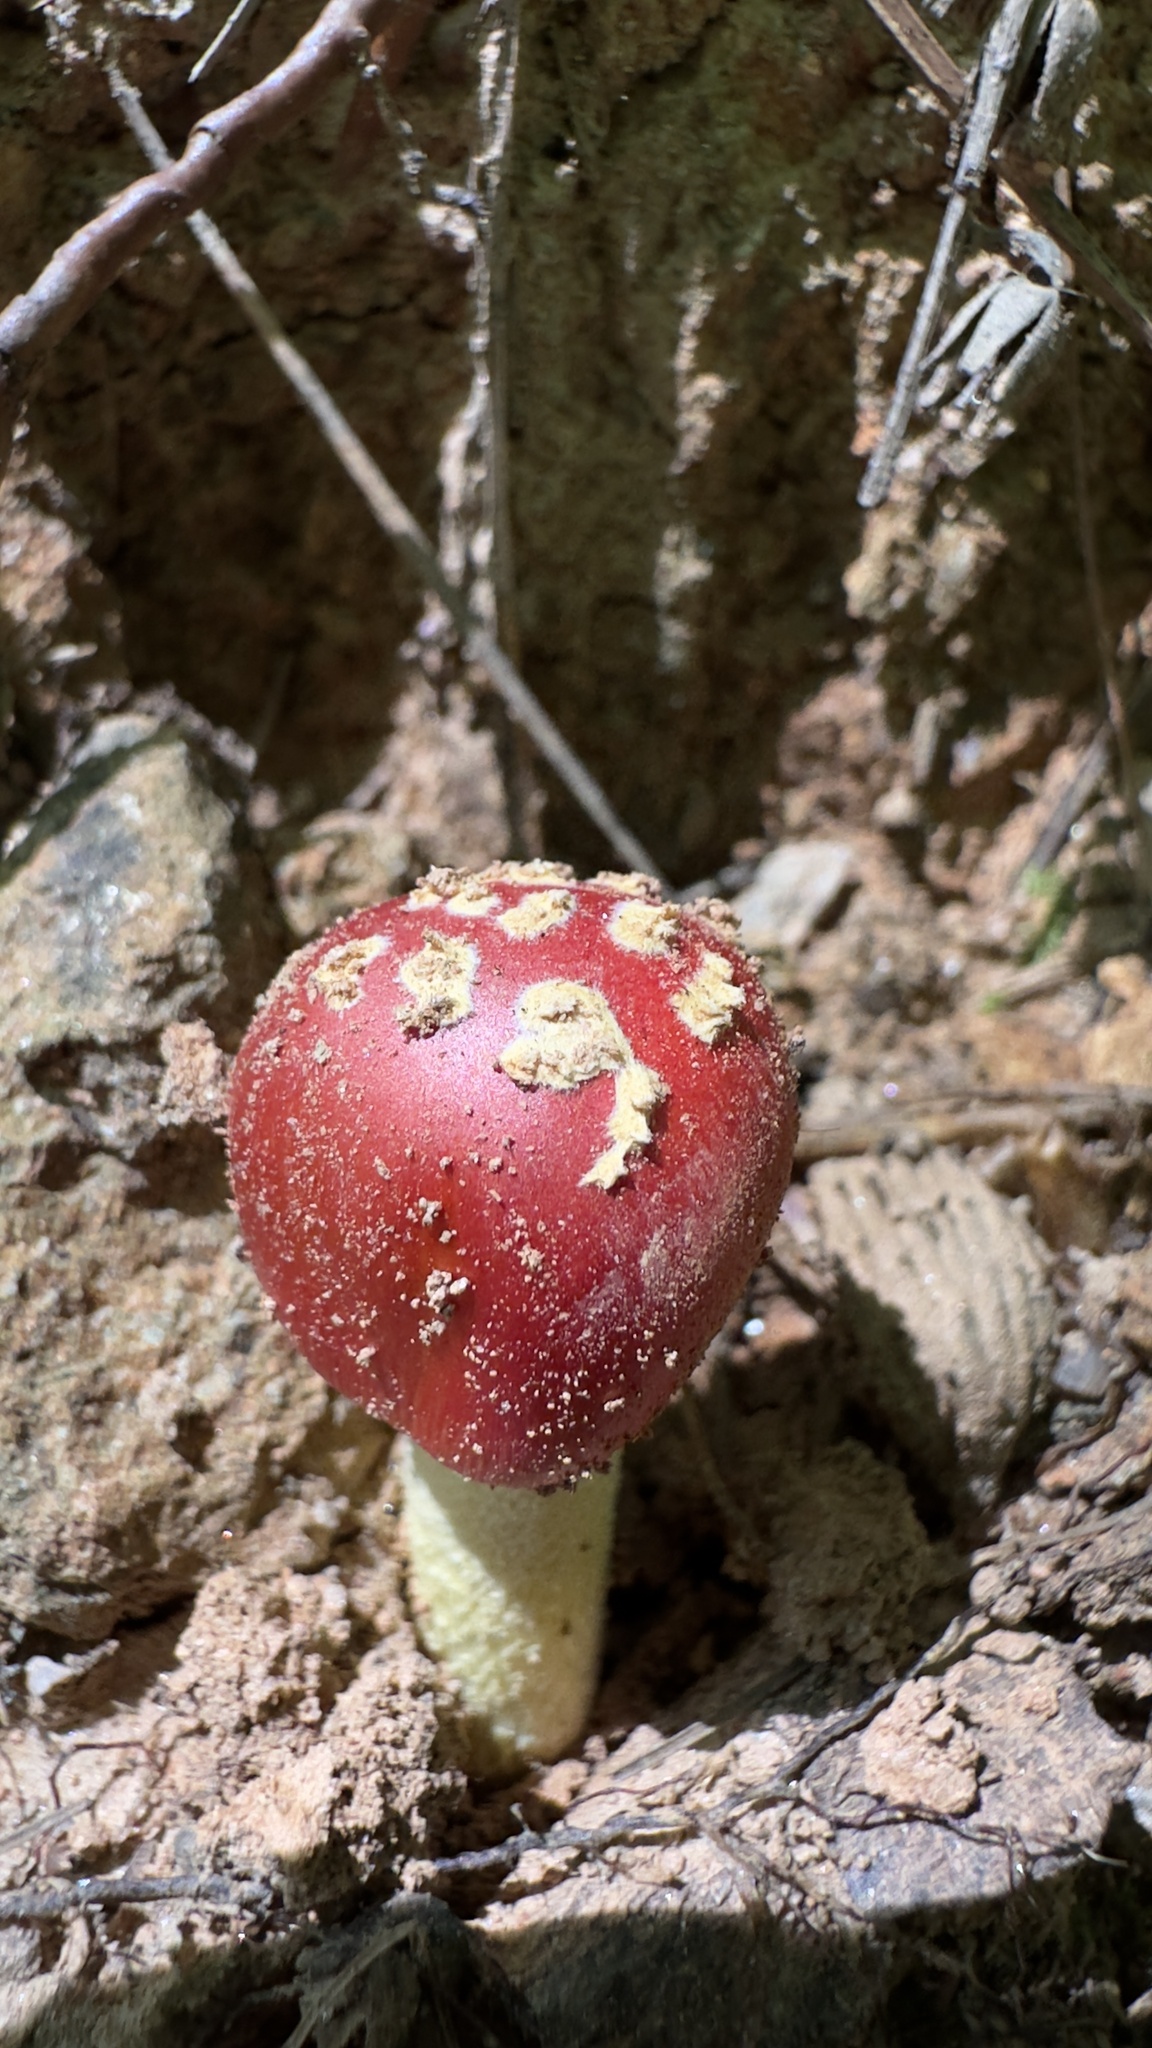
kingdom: Fungi
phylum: Basidiomycota
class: Agaricomycetes
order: Agaricales
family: Amanitaceae
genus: Amanita
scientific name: Amanita parcivolvata
